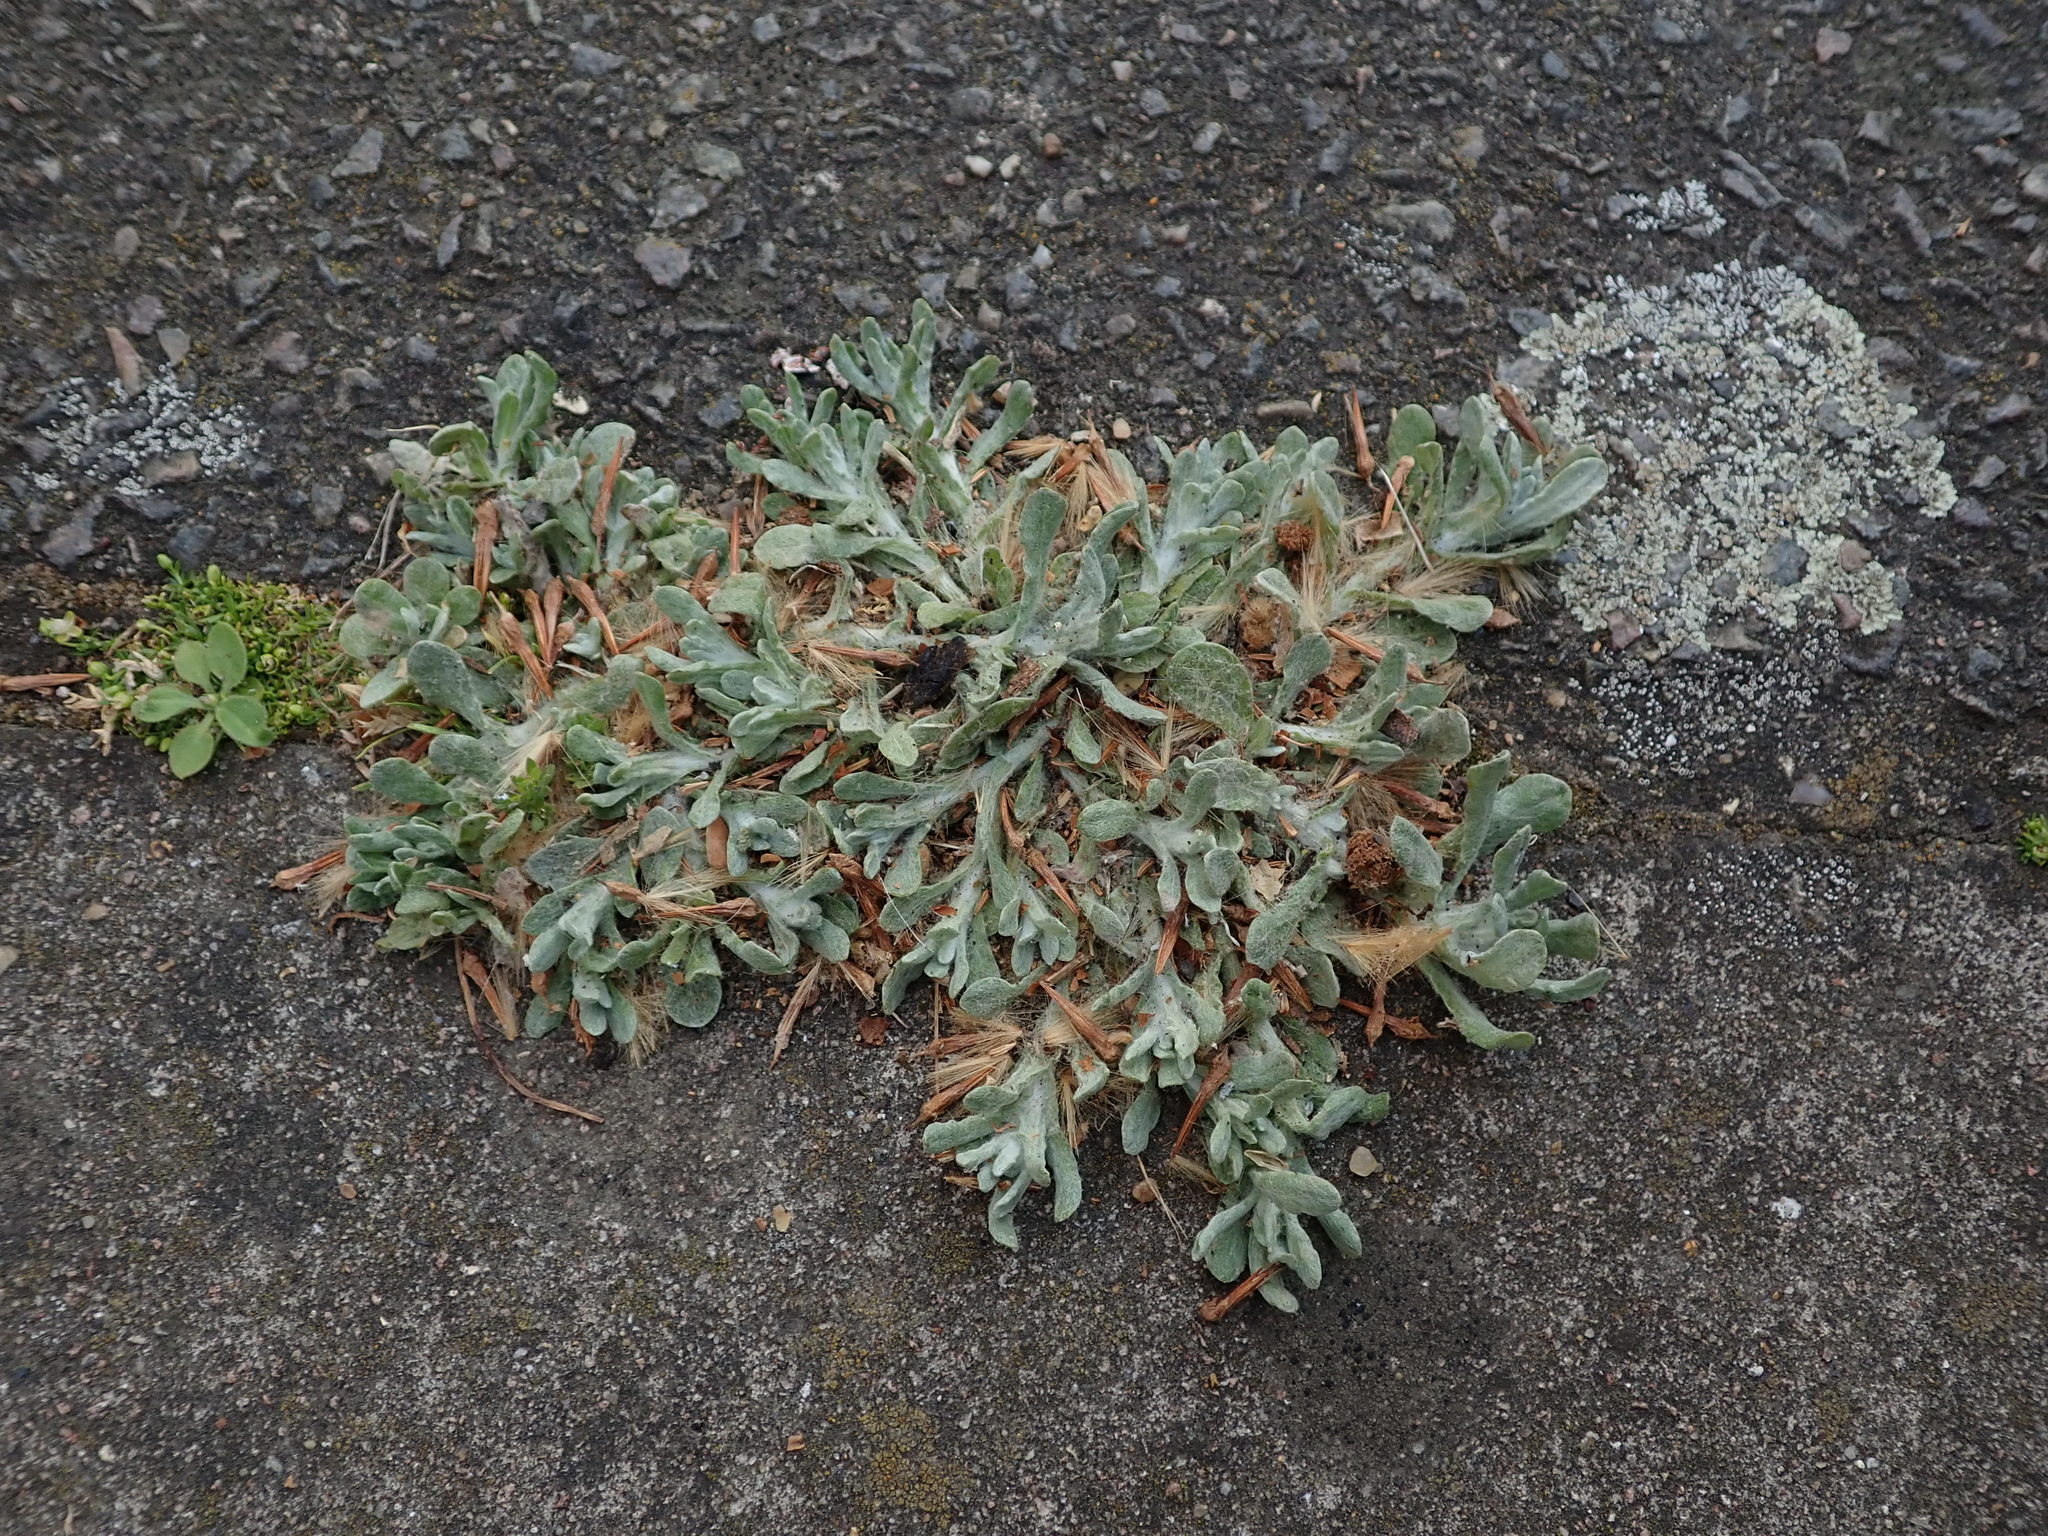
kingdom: Plantae
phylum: Tracheophyta
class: Magnoliopsida
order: Asterales
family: Asteraceae
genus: Helichrysum
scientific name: Helichrysum luteoalbum
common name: Daisy
